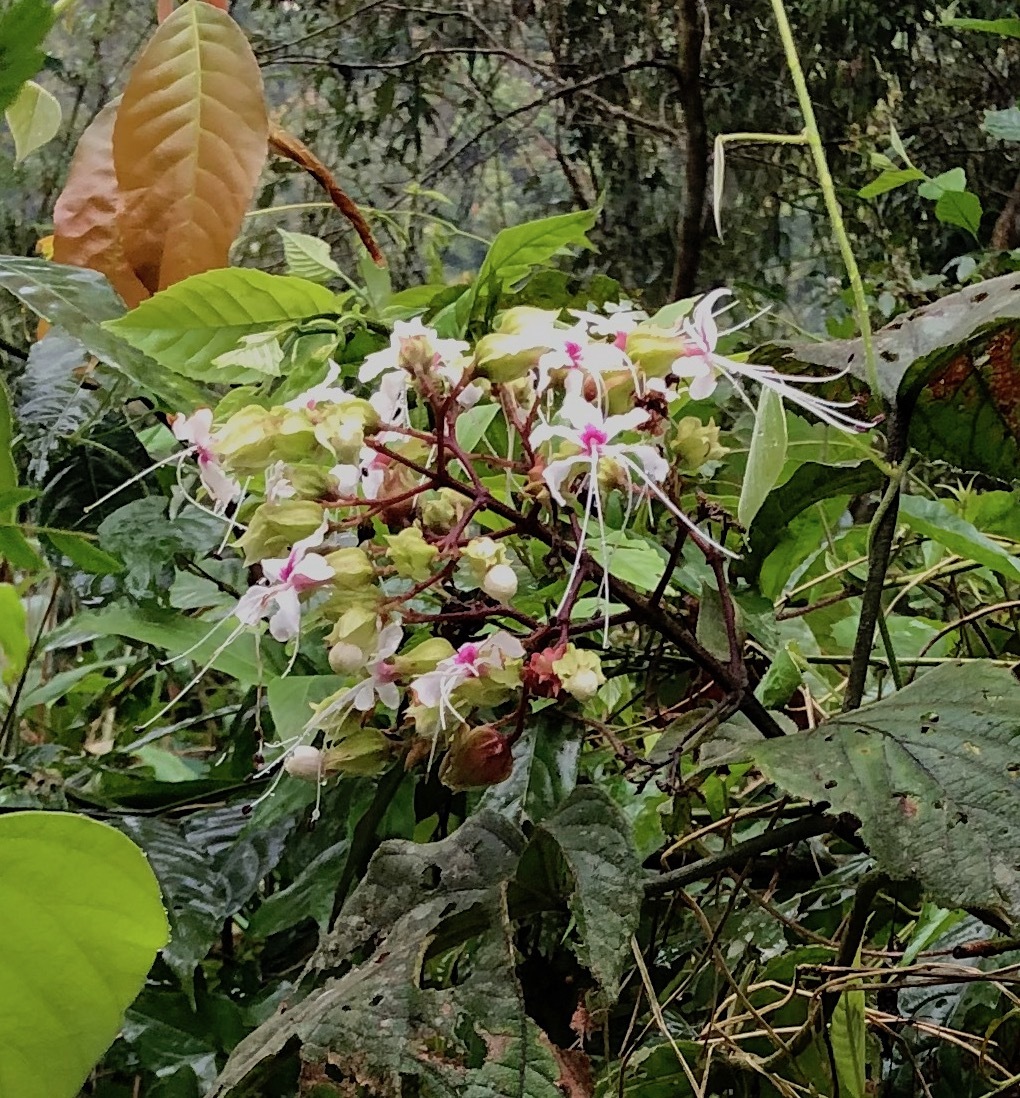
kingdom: Plantae
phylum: Tracheophyta
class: Magnoliopsida
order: Lamiales
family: Lamiaceae
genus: Clerodendrum
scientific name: Clerodendrum trichotomum
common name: Harlequin glorybower
